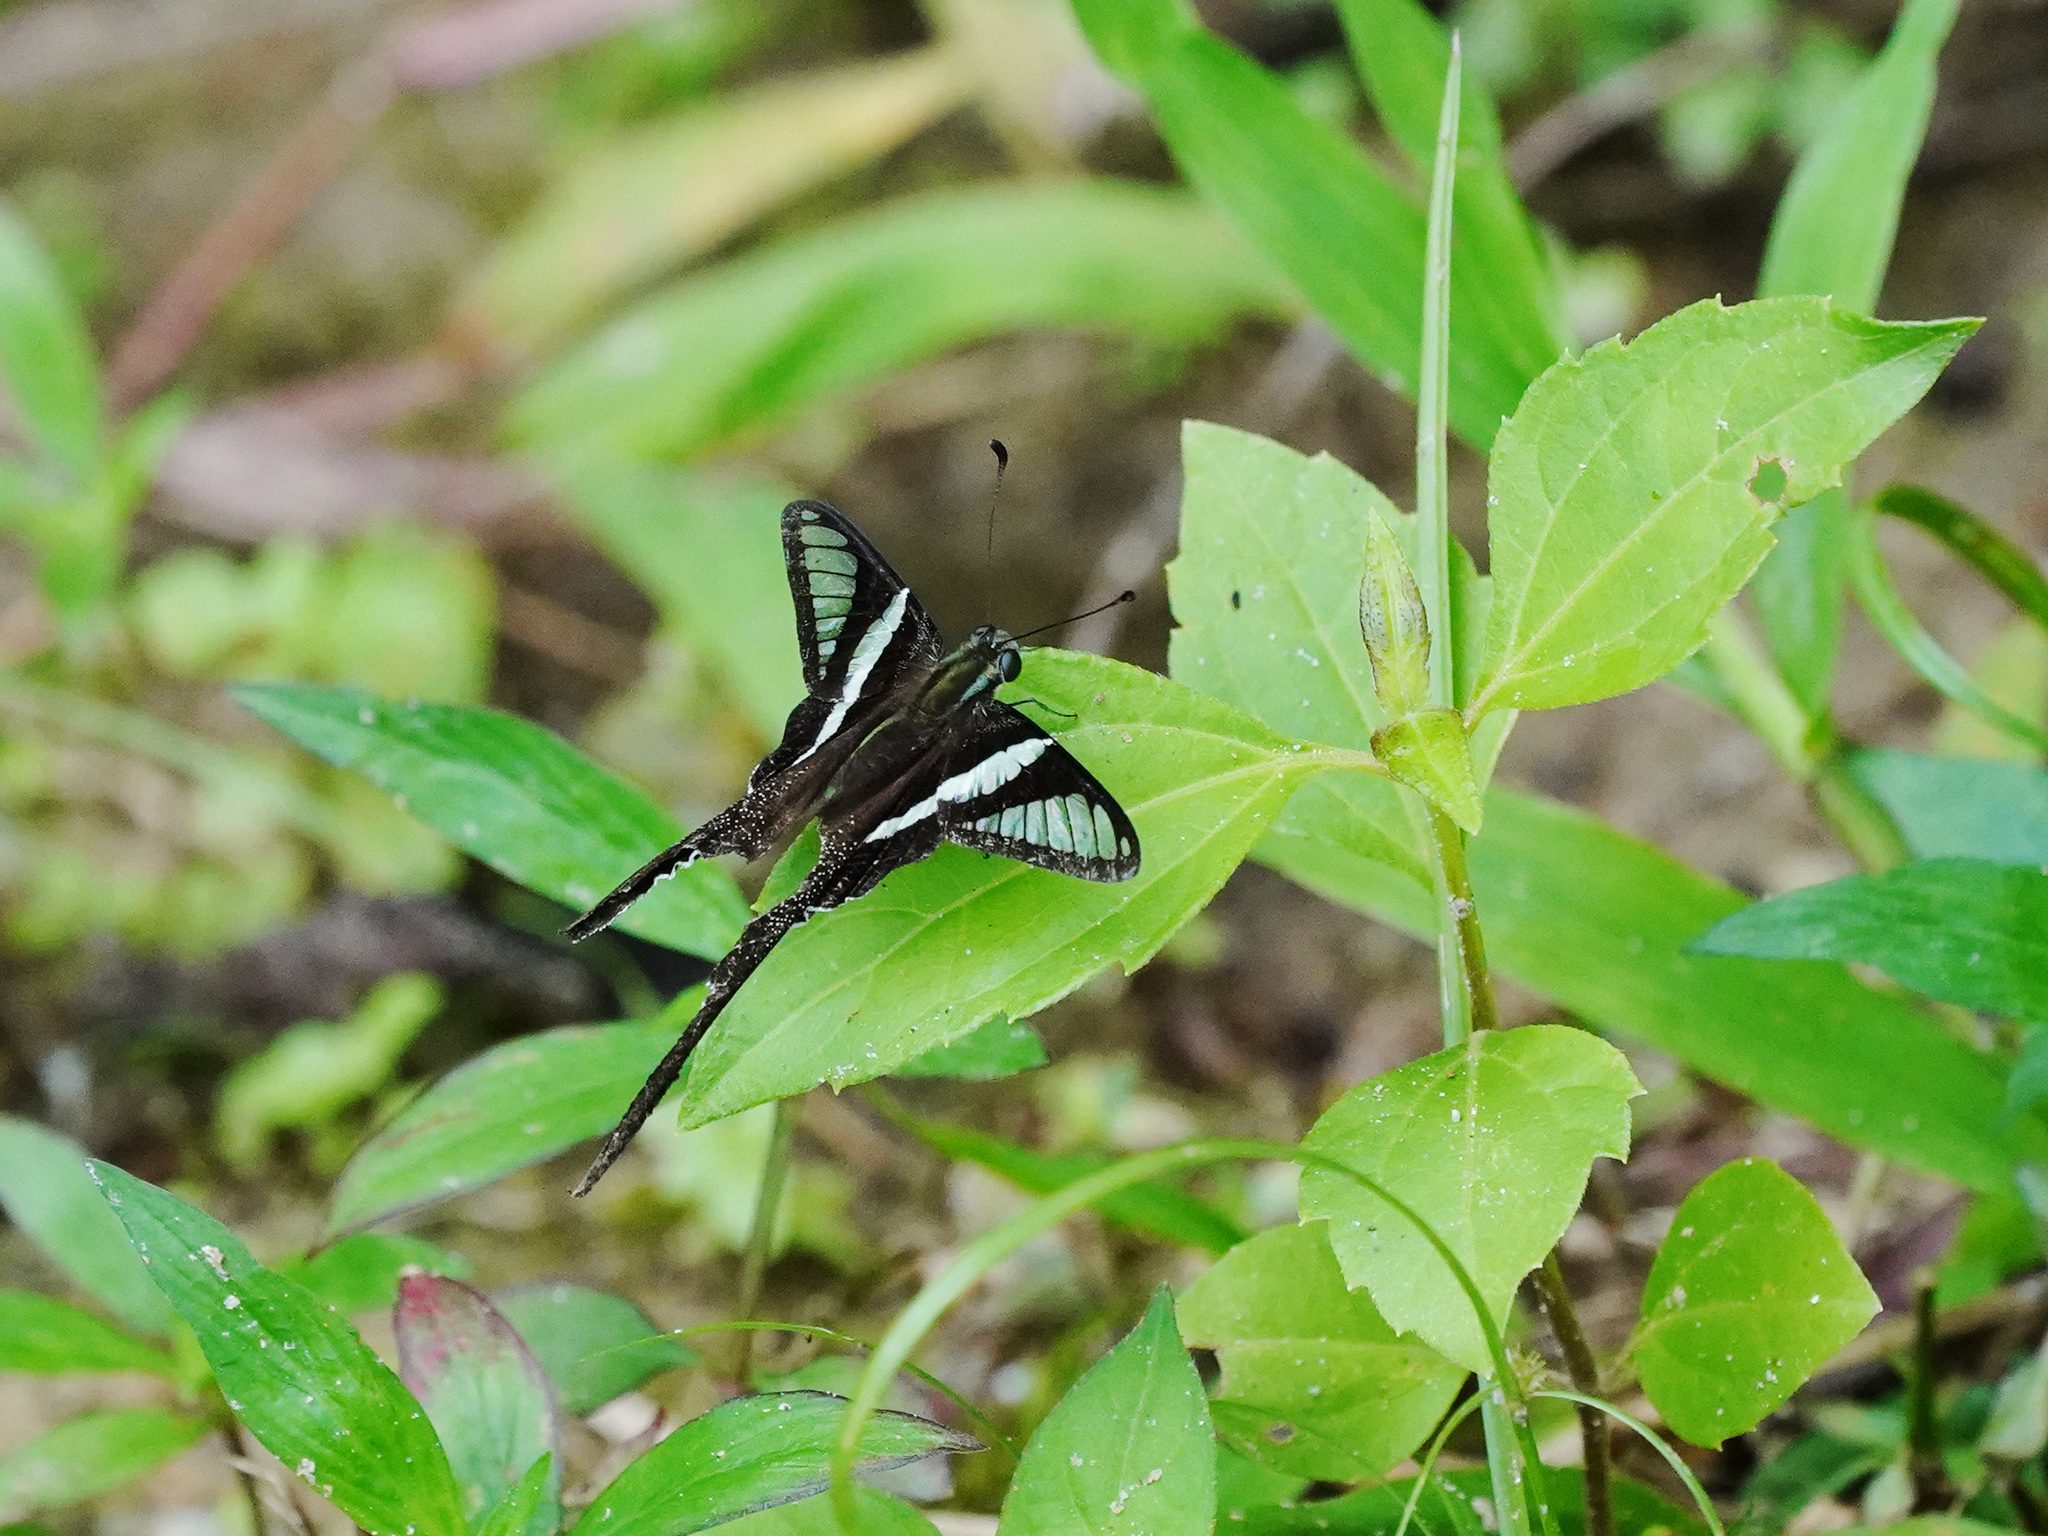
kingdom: Animalia
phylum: Arthropoda
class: Insecta
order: Lepidoptera
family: Papilionidae
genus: Lamproptera
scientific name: Lamproptera curius
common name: White dragontail
